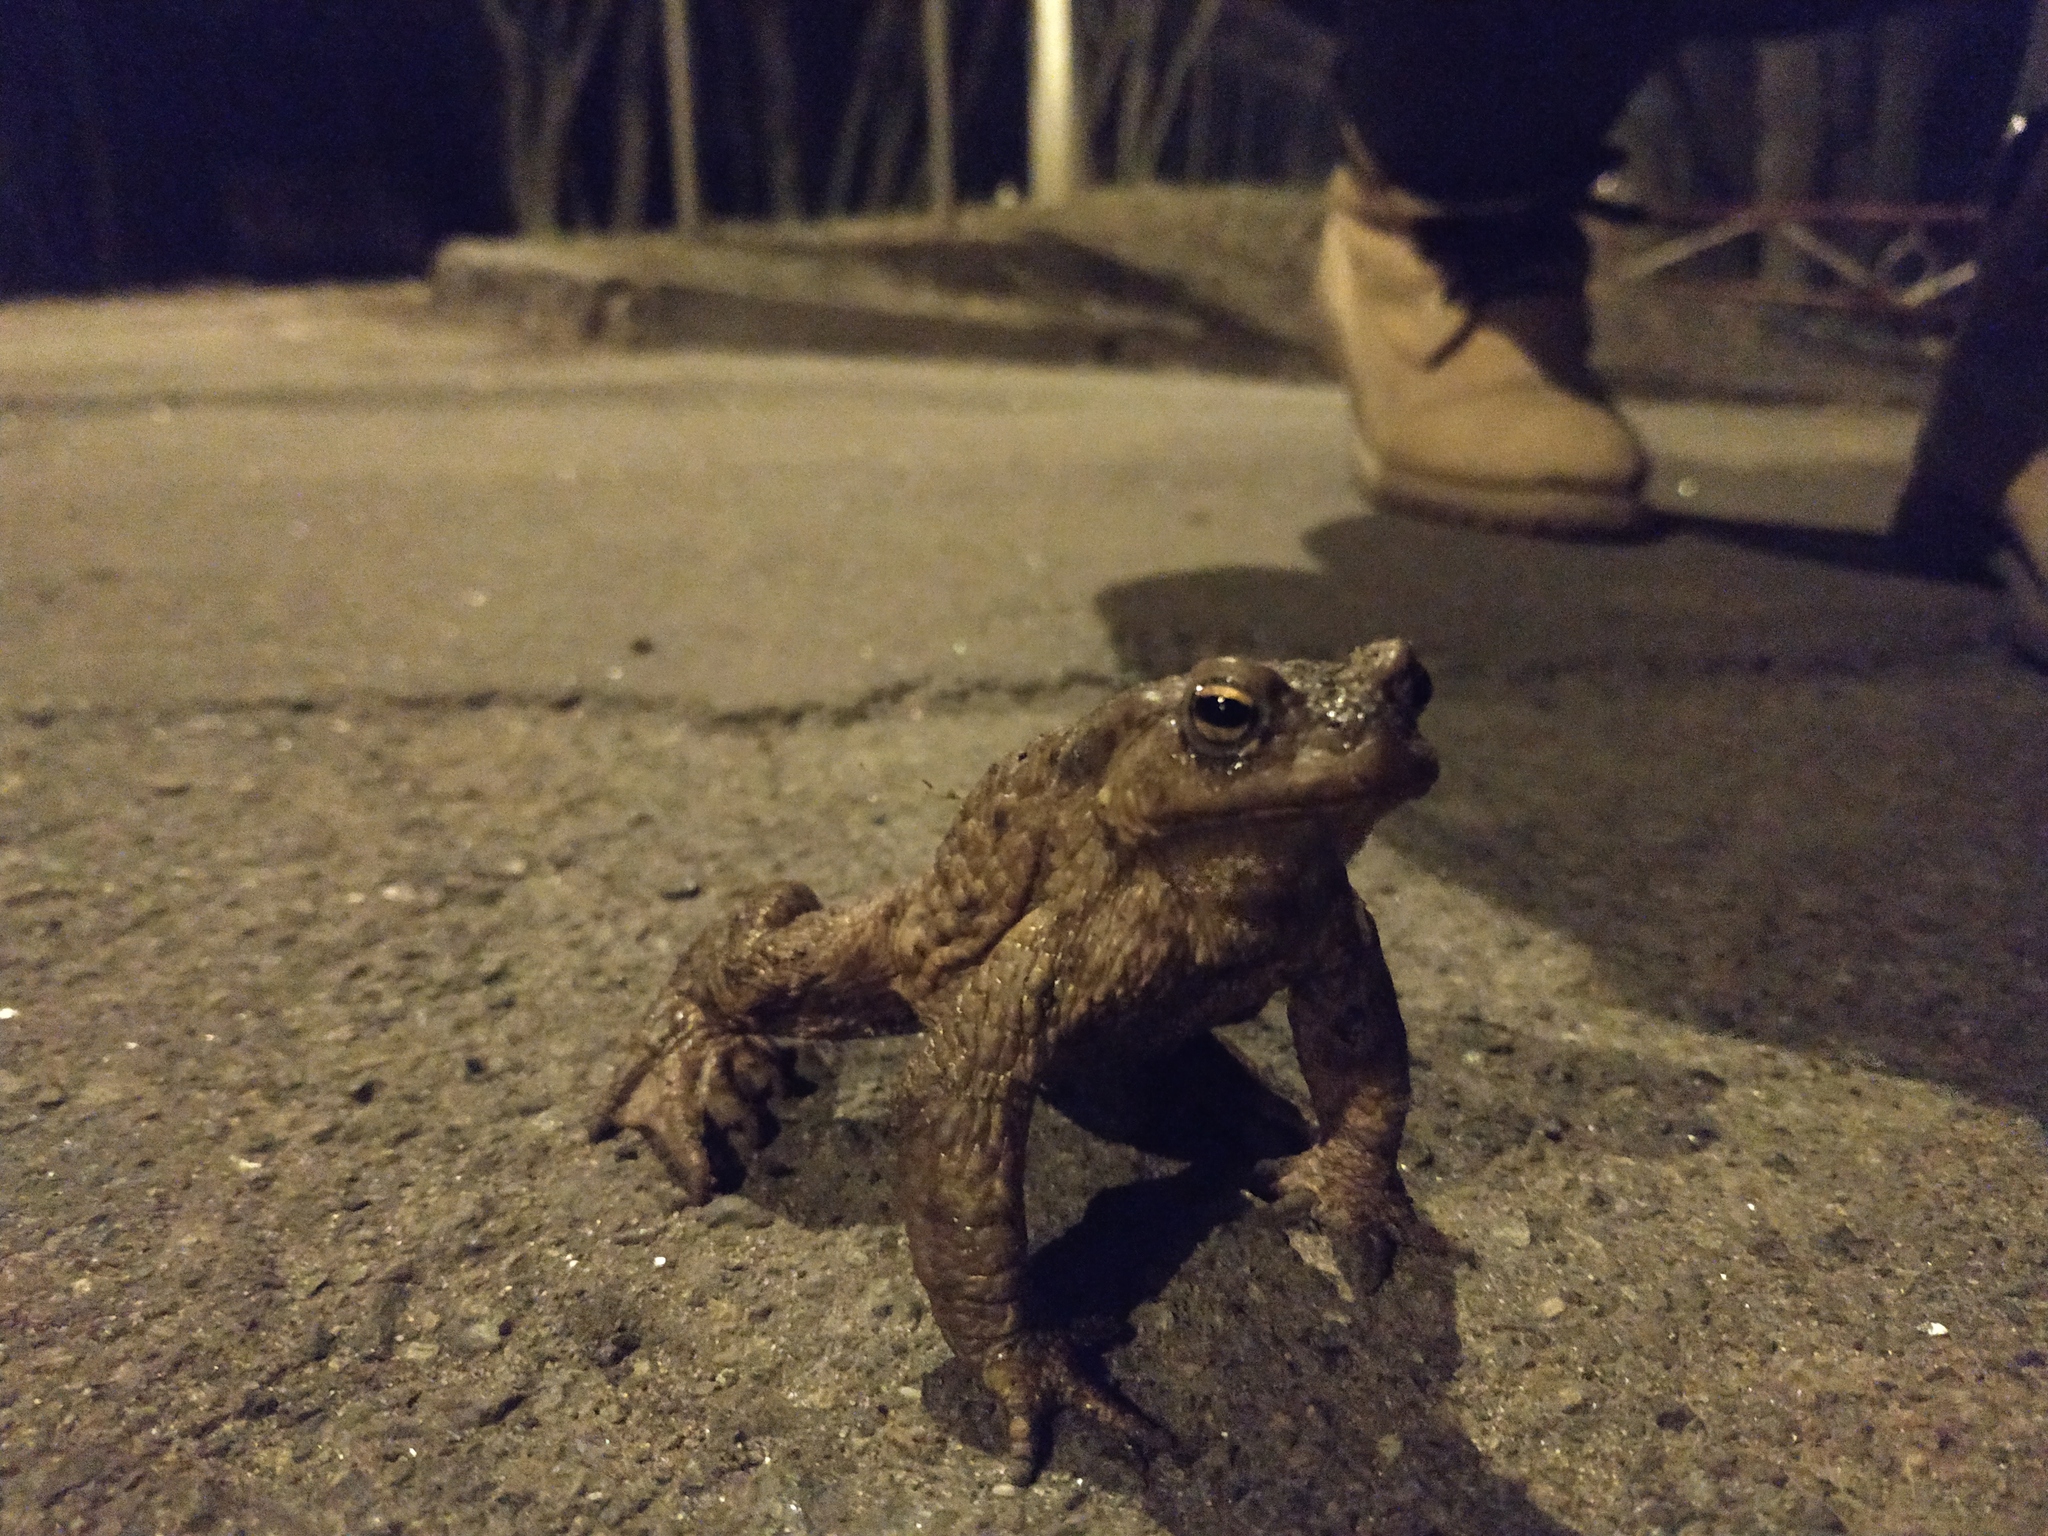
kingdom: Animalia
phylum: Chordata
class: Amphibia
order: Anura
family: Bufonidae
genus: Bufo
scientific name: Bufo bufo
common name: Common toad
